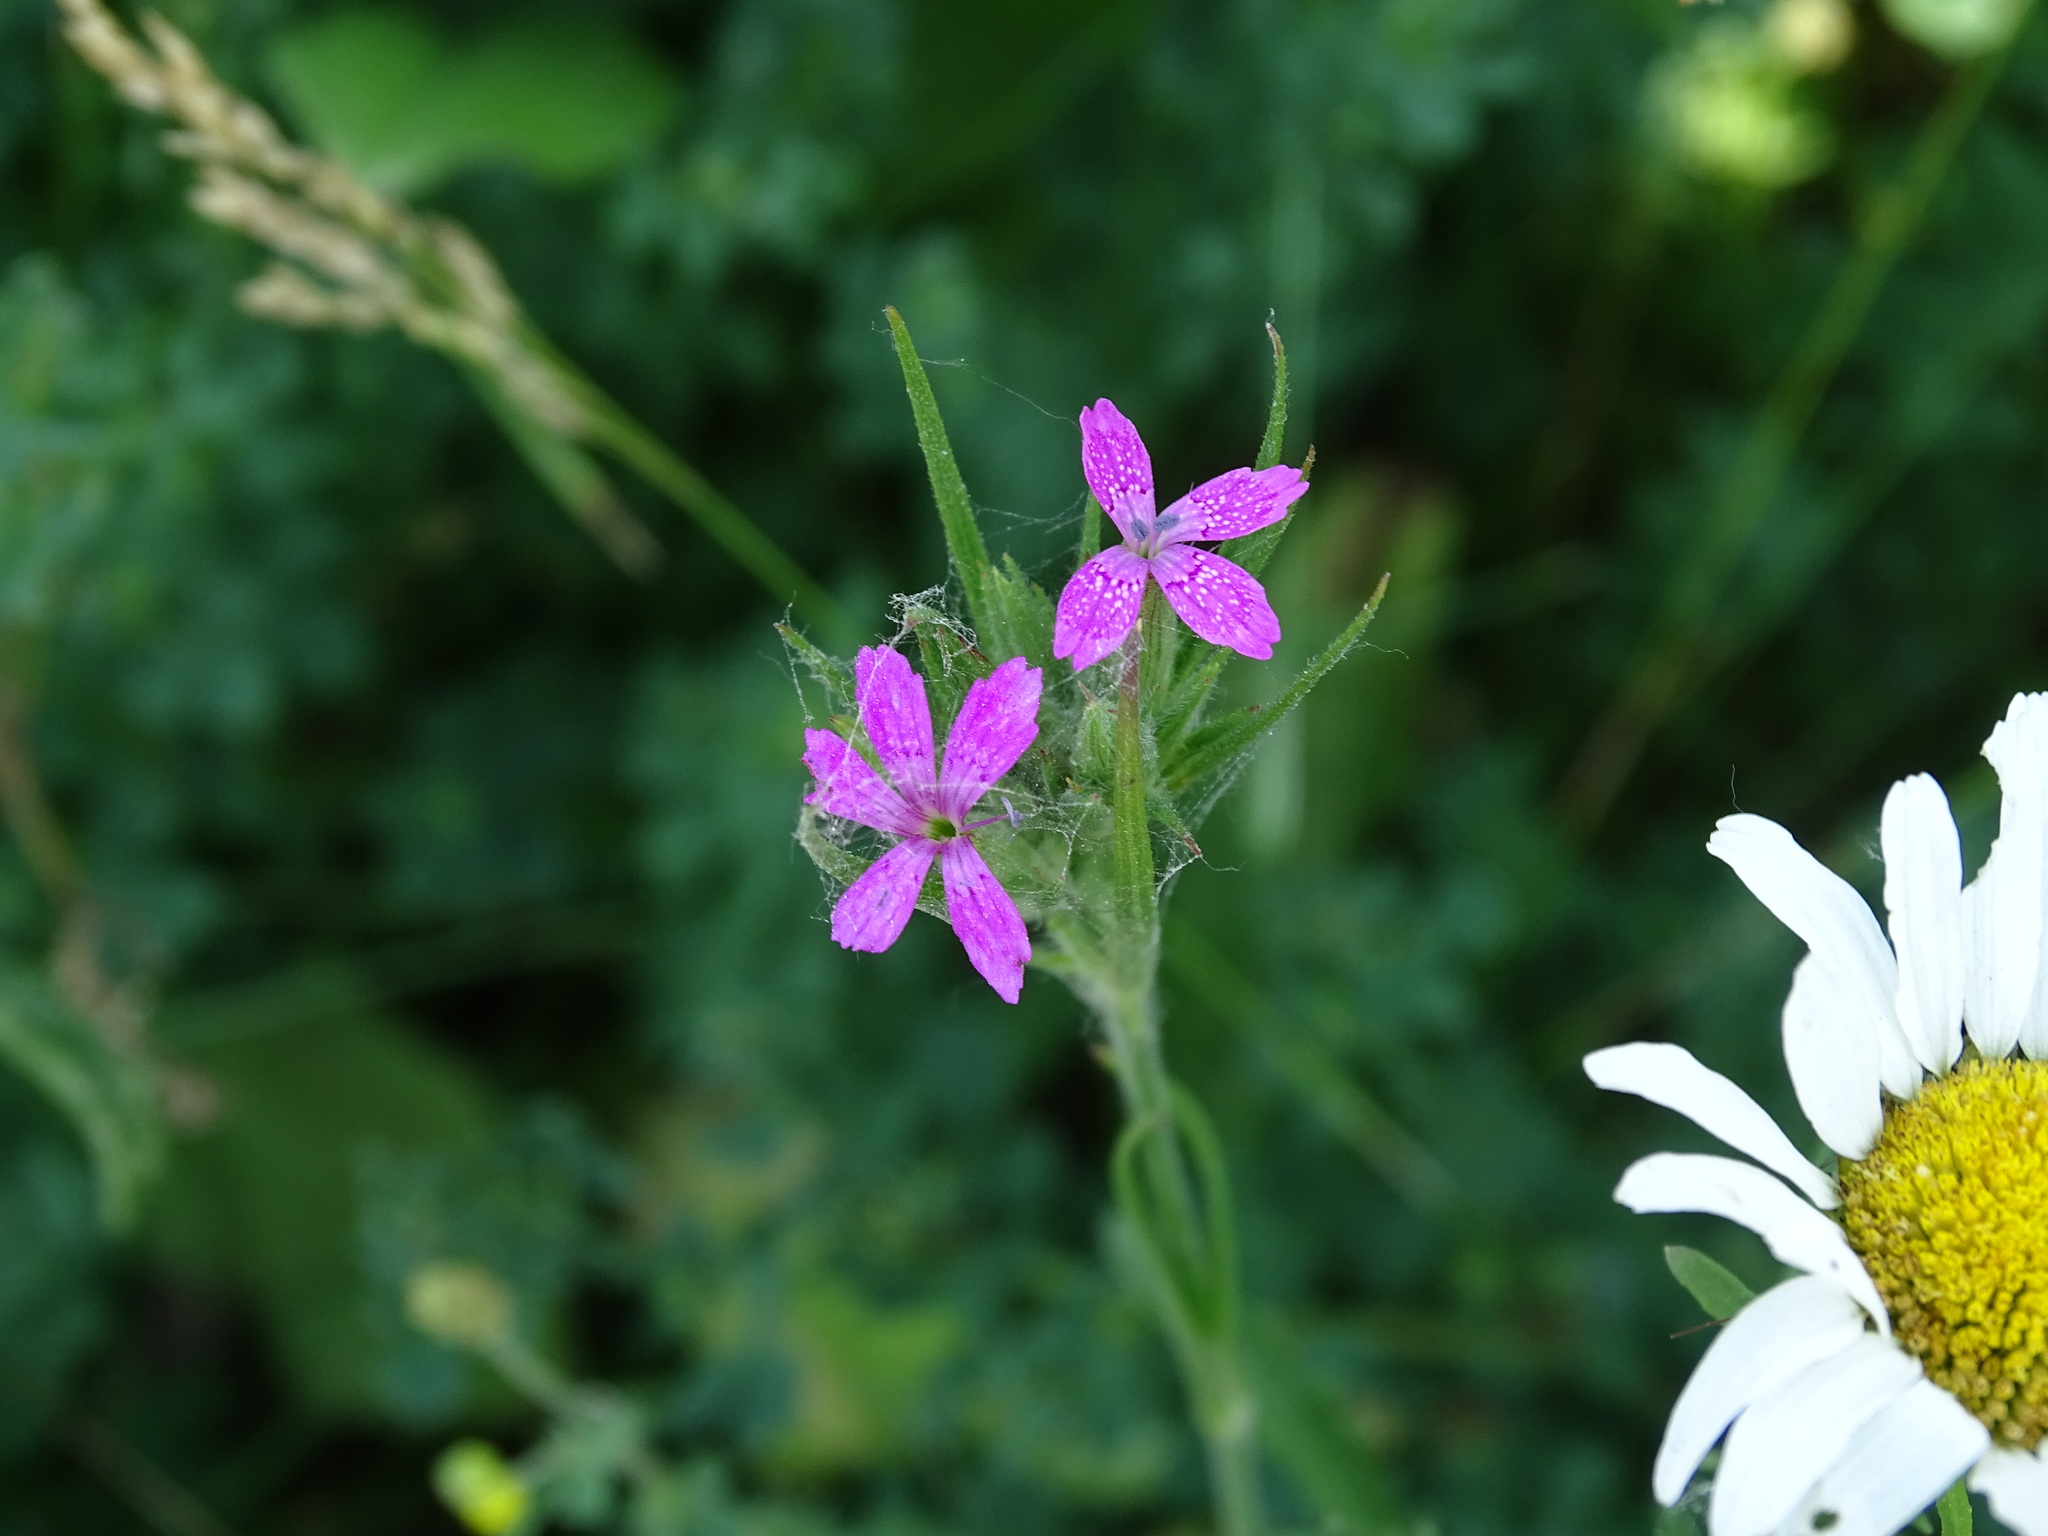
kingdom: Plantae
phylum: Tracheophyta
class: Magnoliopsida
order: Caryophyllales
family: Caryophyllaceae
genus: Dianthus
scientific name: Dianthus armeria
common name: Deptford pink
